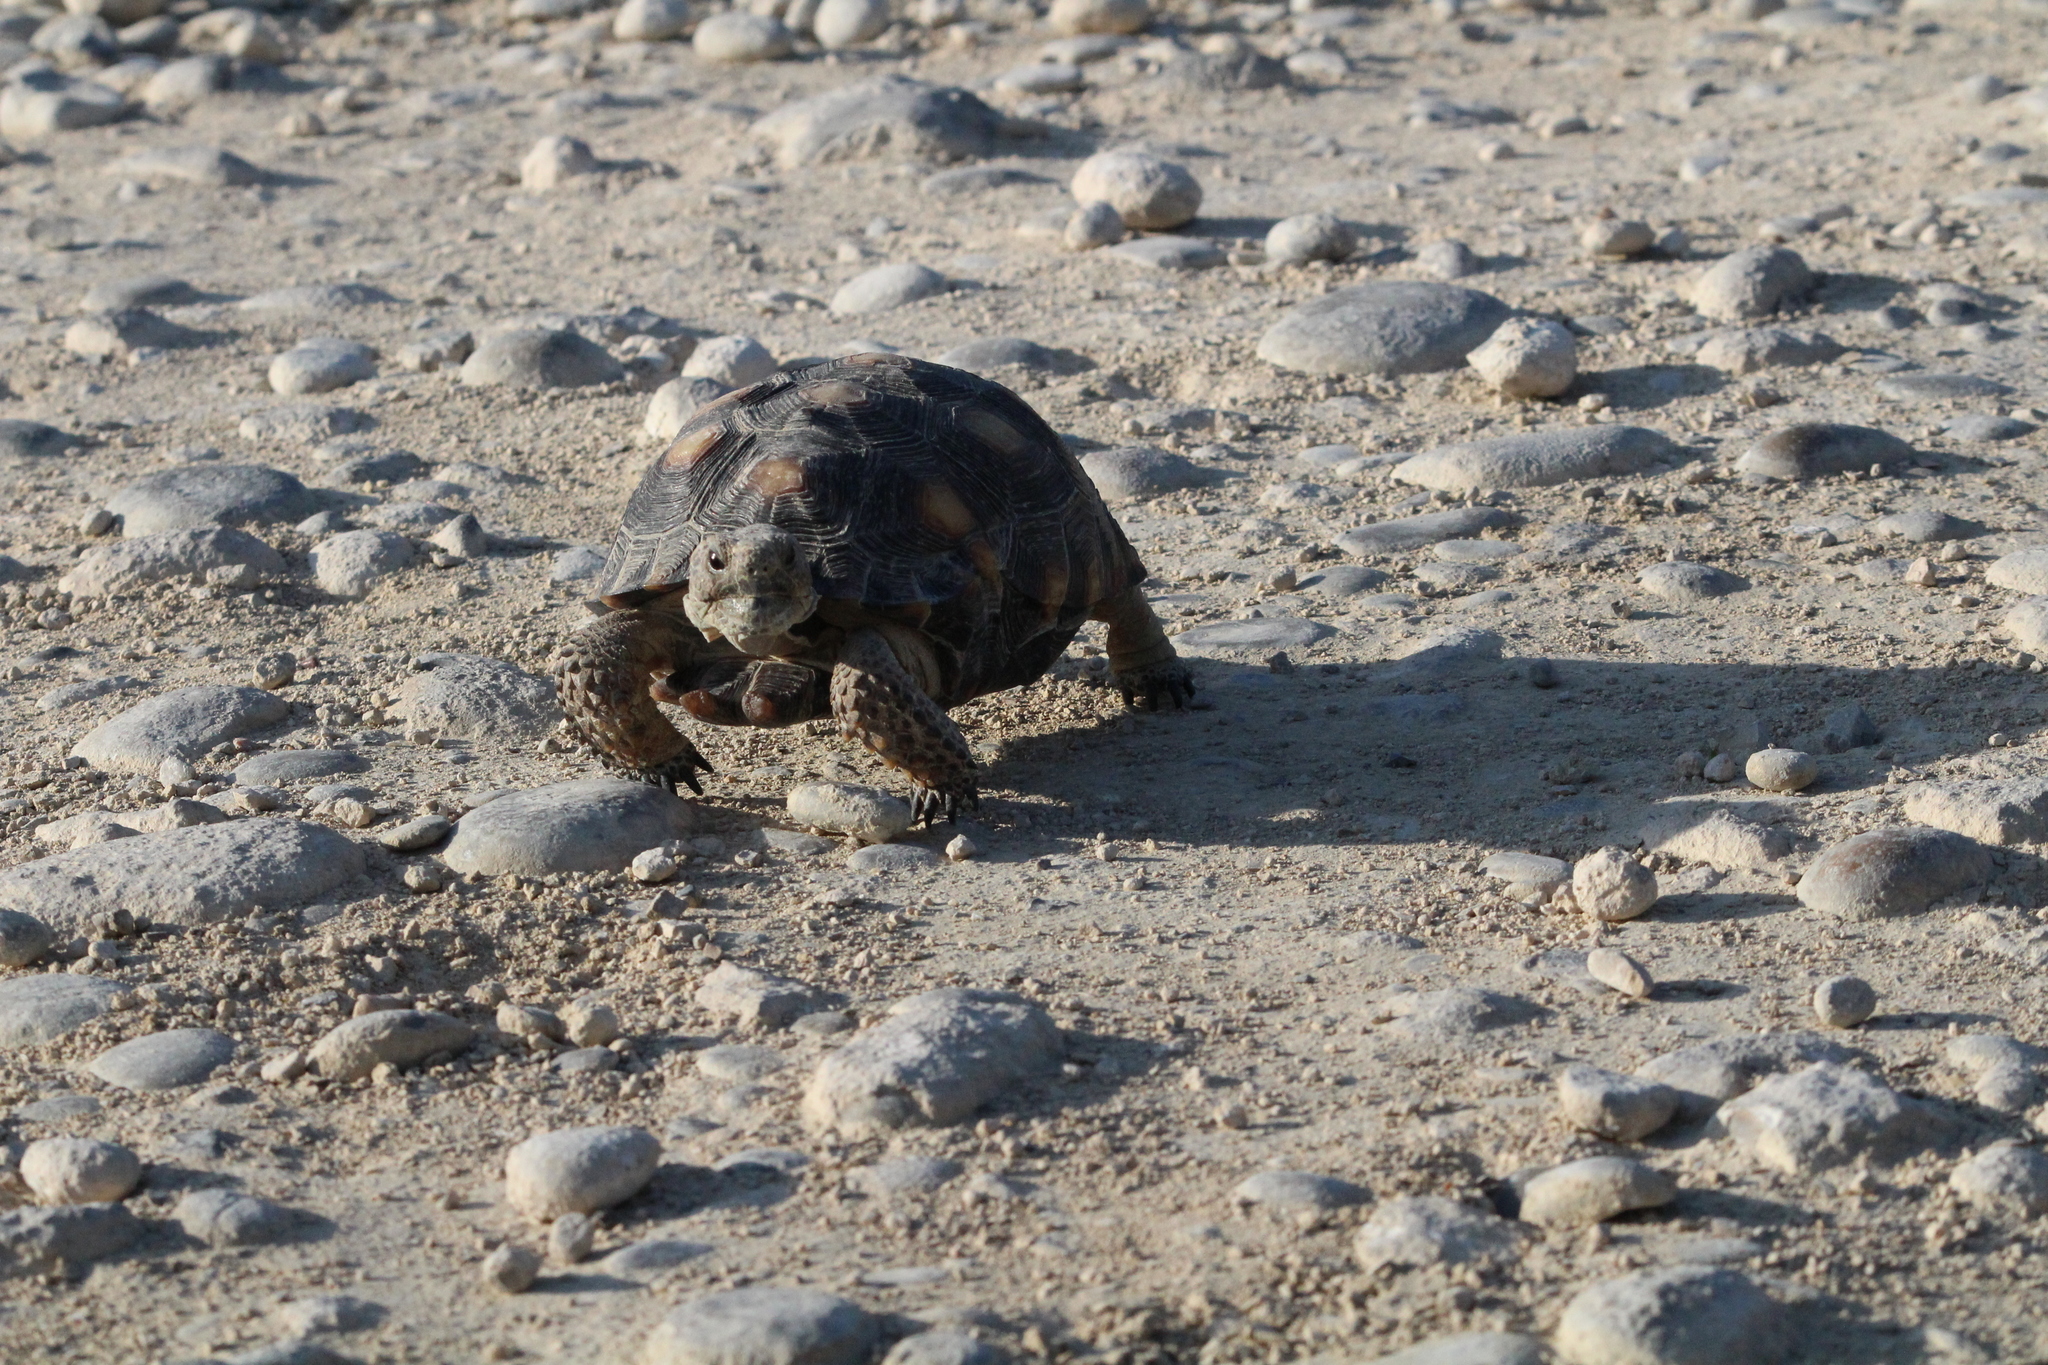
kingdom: Animalia
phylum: Chordata
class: Testudines
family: Testudinidae
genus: Gopherus
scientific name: Gopherus berlandieri
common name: Texas (gopher )tortoise
